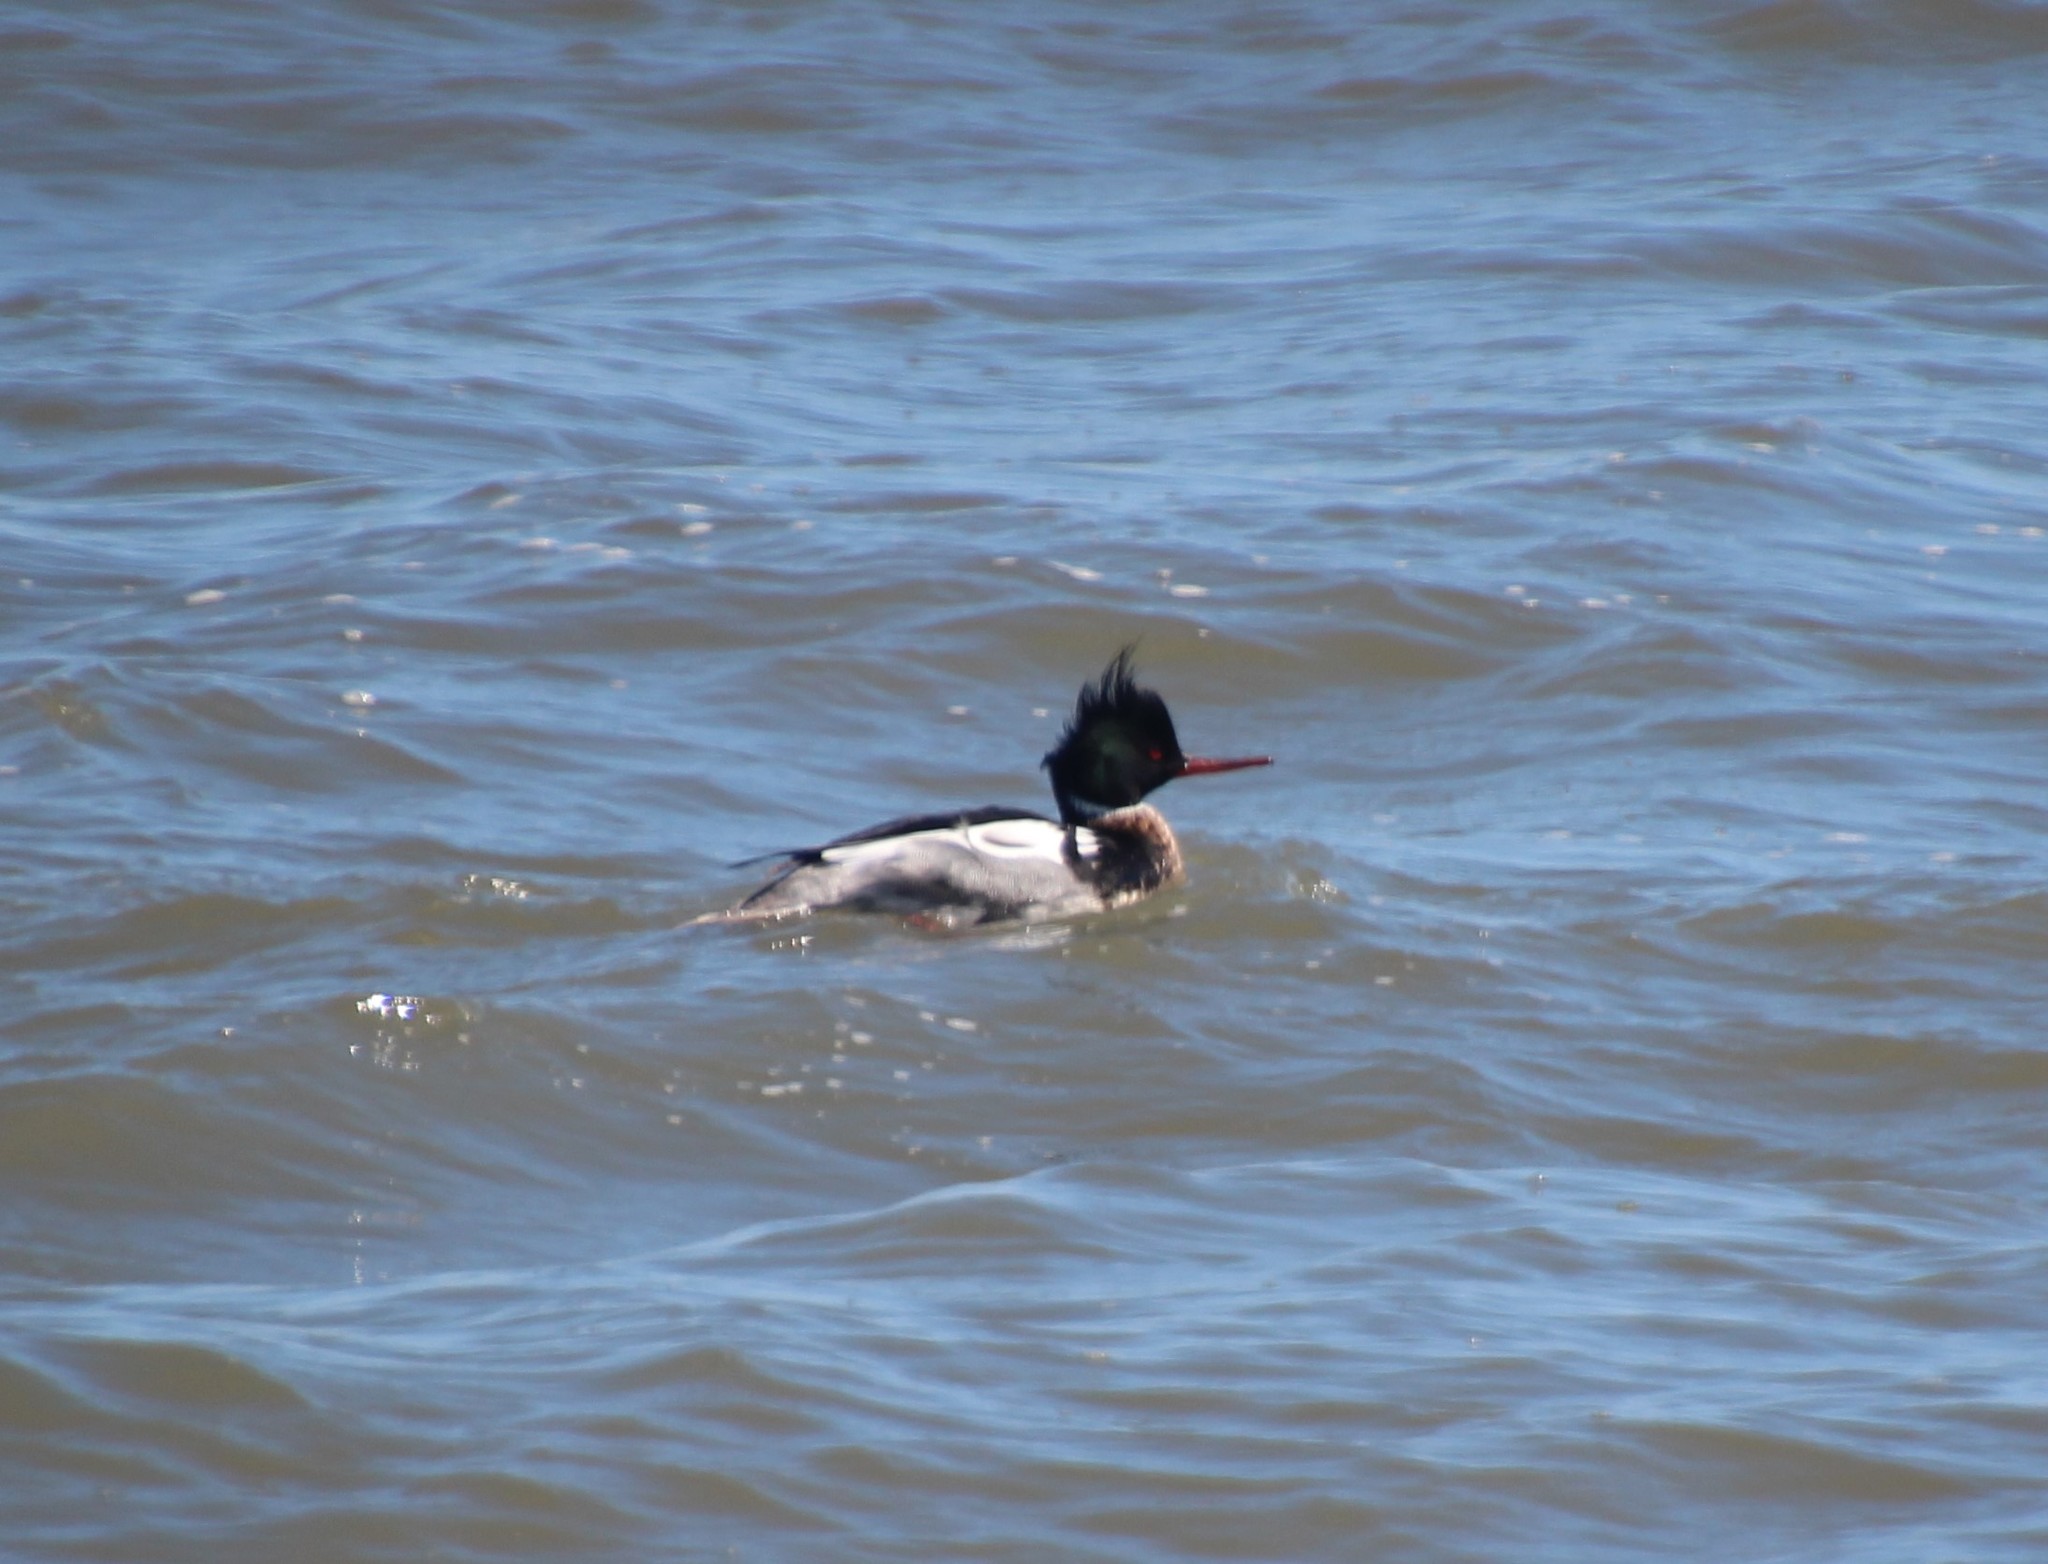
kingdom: Animalia
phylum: Chordata
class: Aves
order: Anseriformes
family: Anatidae
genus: Mergus
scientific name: Mergus serrator
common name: Red-breasted merganser
